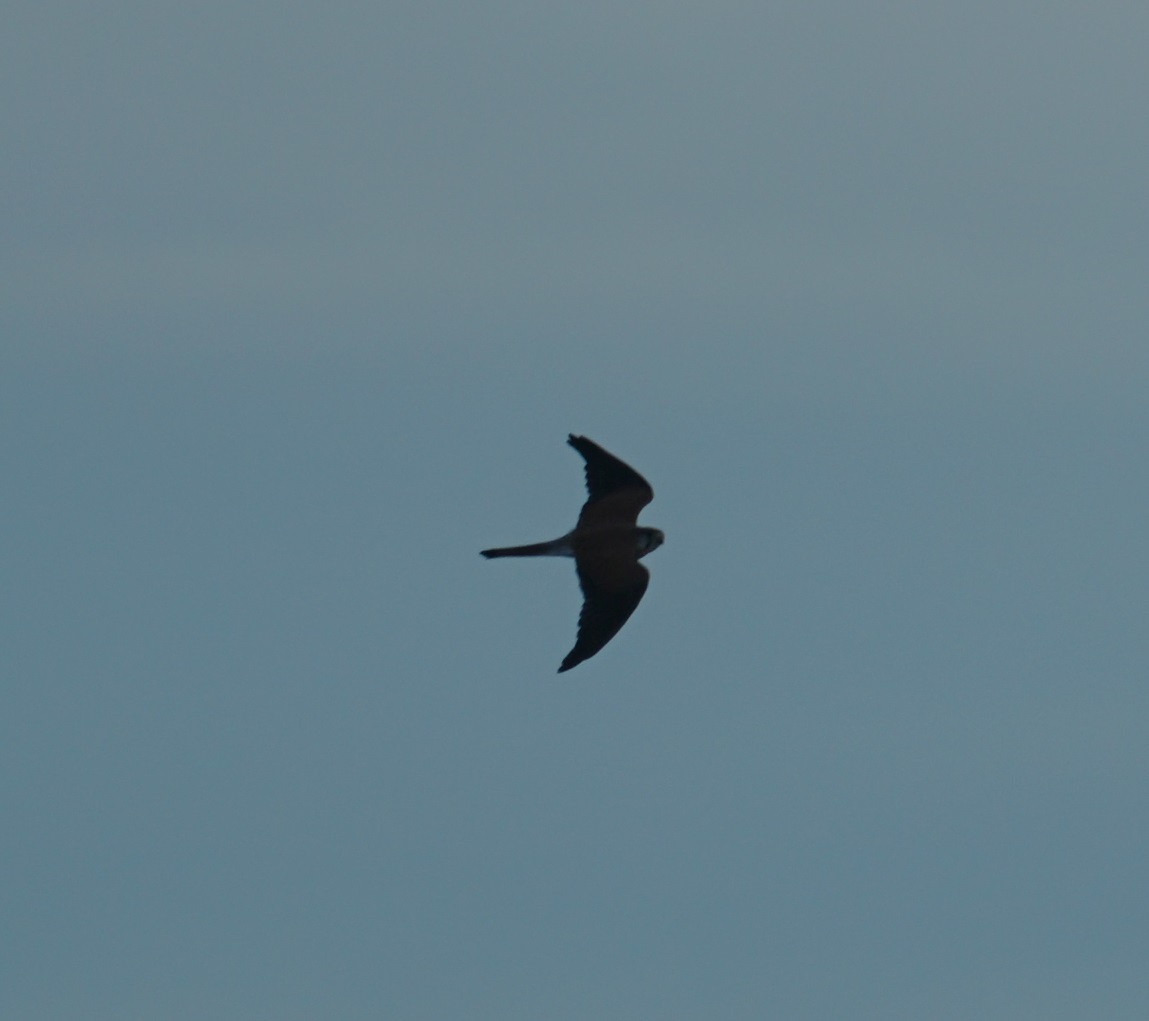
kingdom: Animalia
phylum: Chordata
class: Aves
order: Falconiformes
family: Falconidae
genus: Falco
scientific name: Falco cenchroides
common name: Nankeen kestrel
